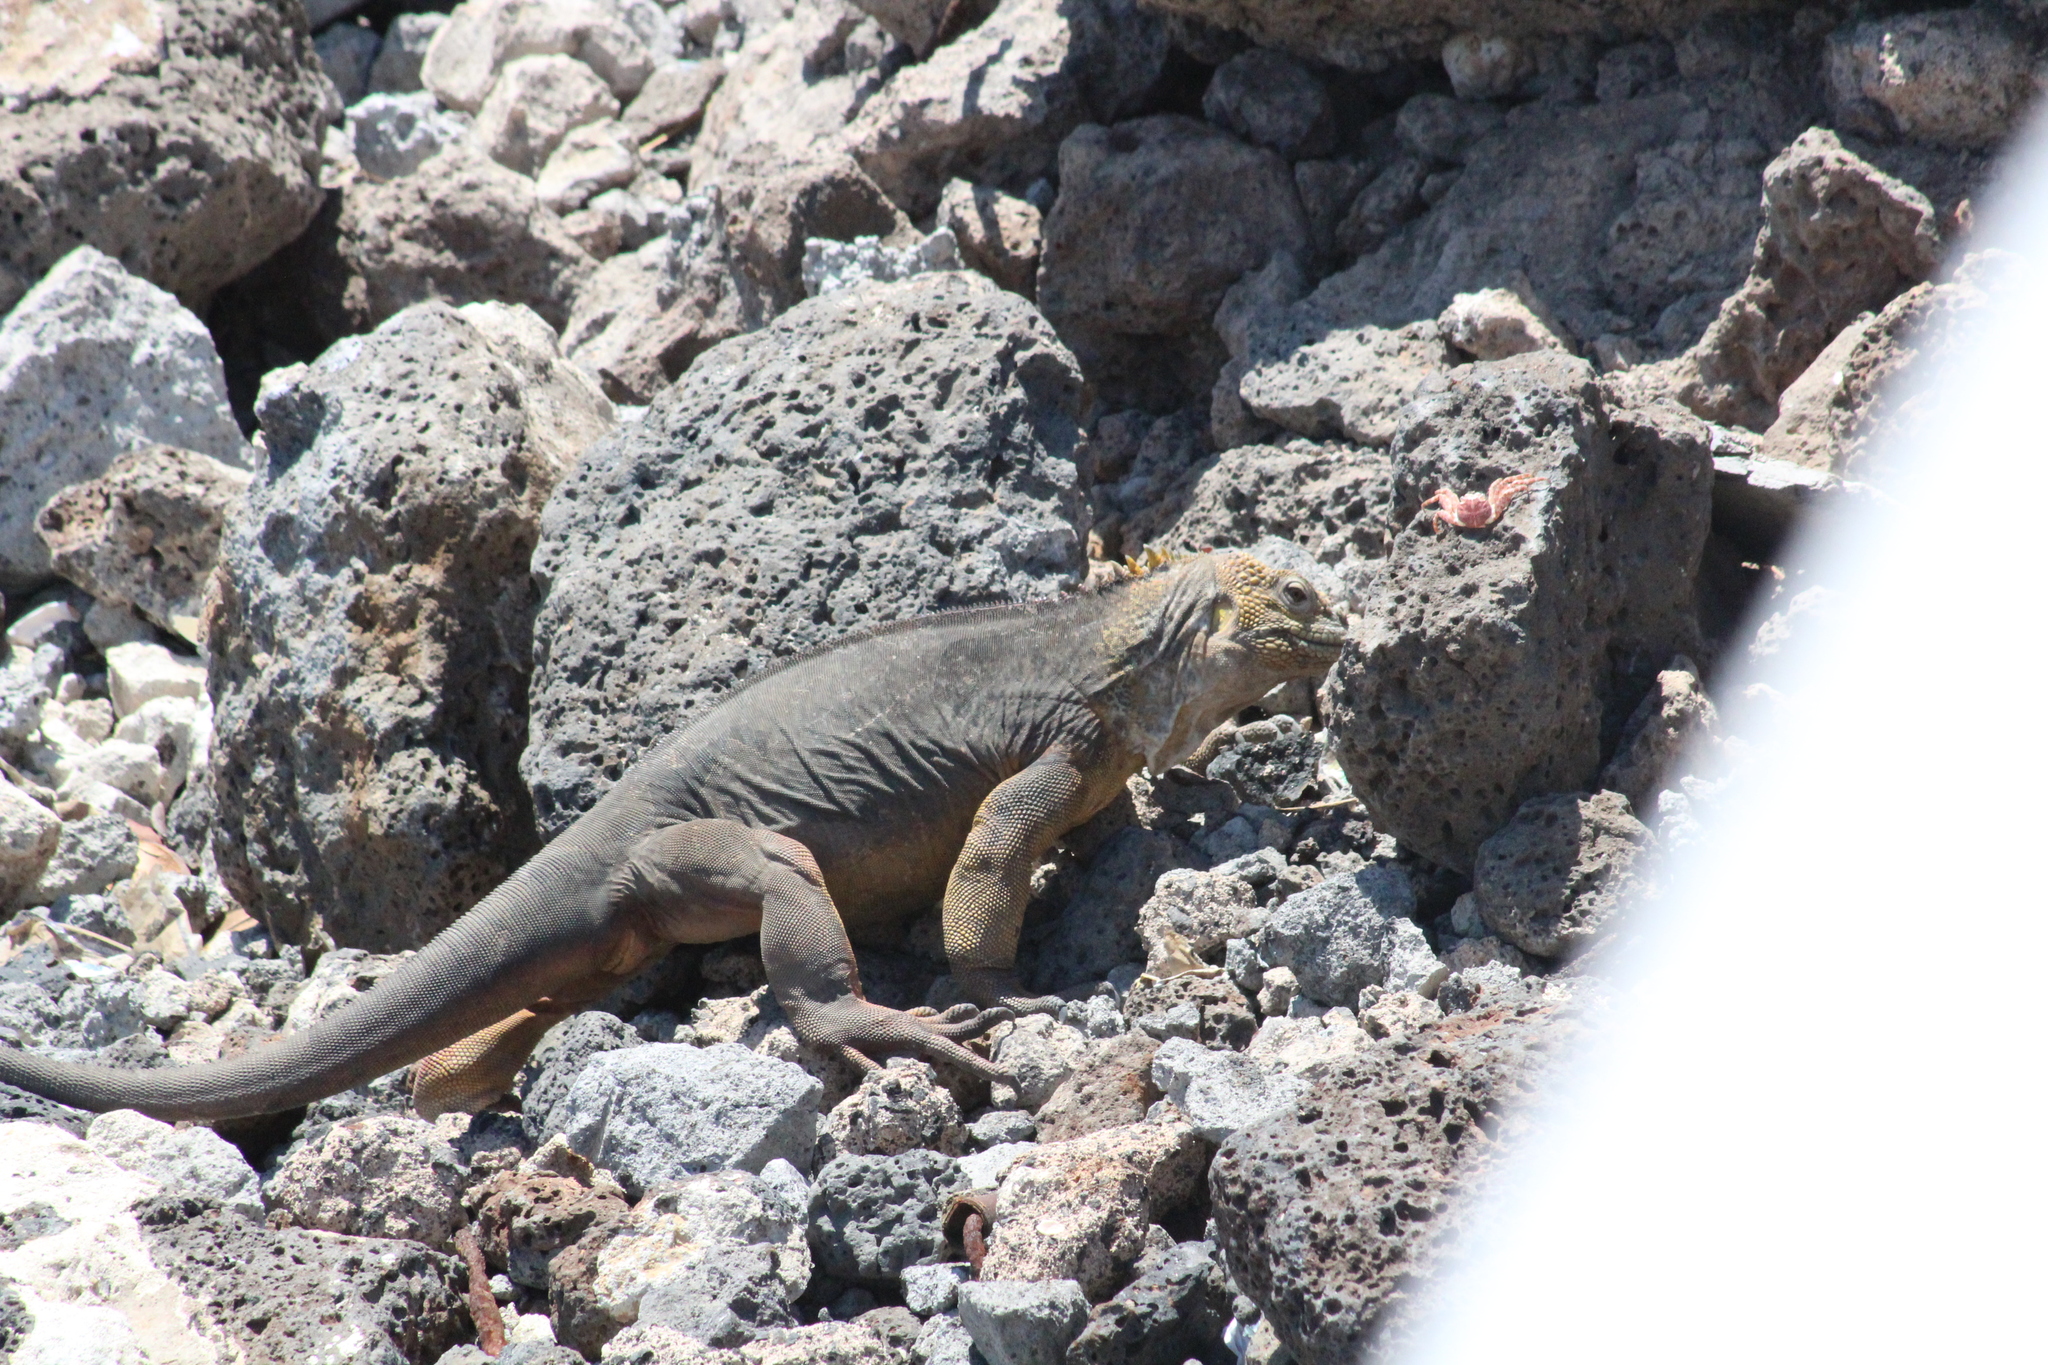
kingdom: Animalia
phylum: Chordata
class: Squamata
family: Iguanidae
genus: Conolophus
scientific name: Conolophus subcristatus
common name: Galapagos land iguana
